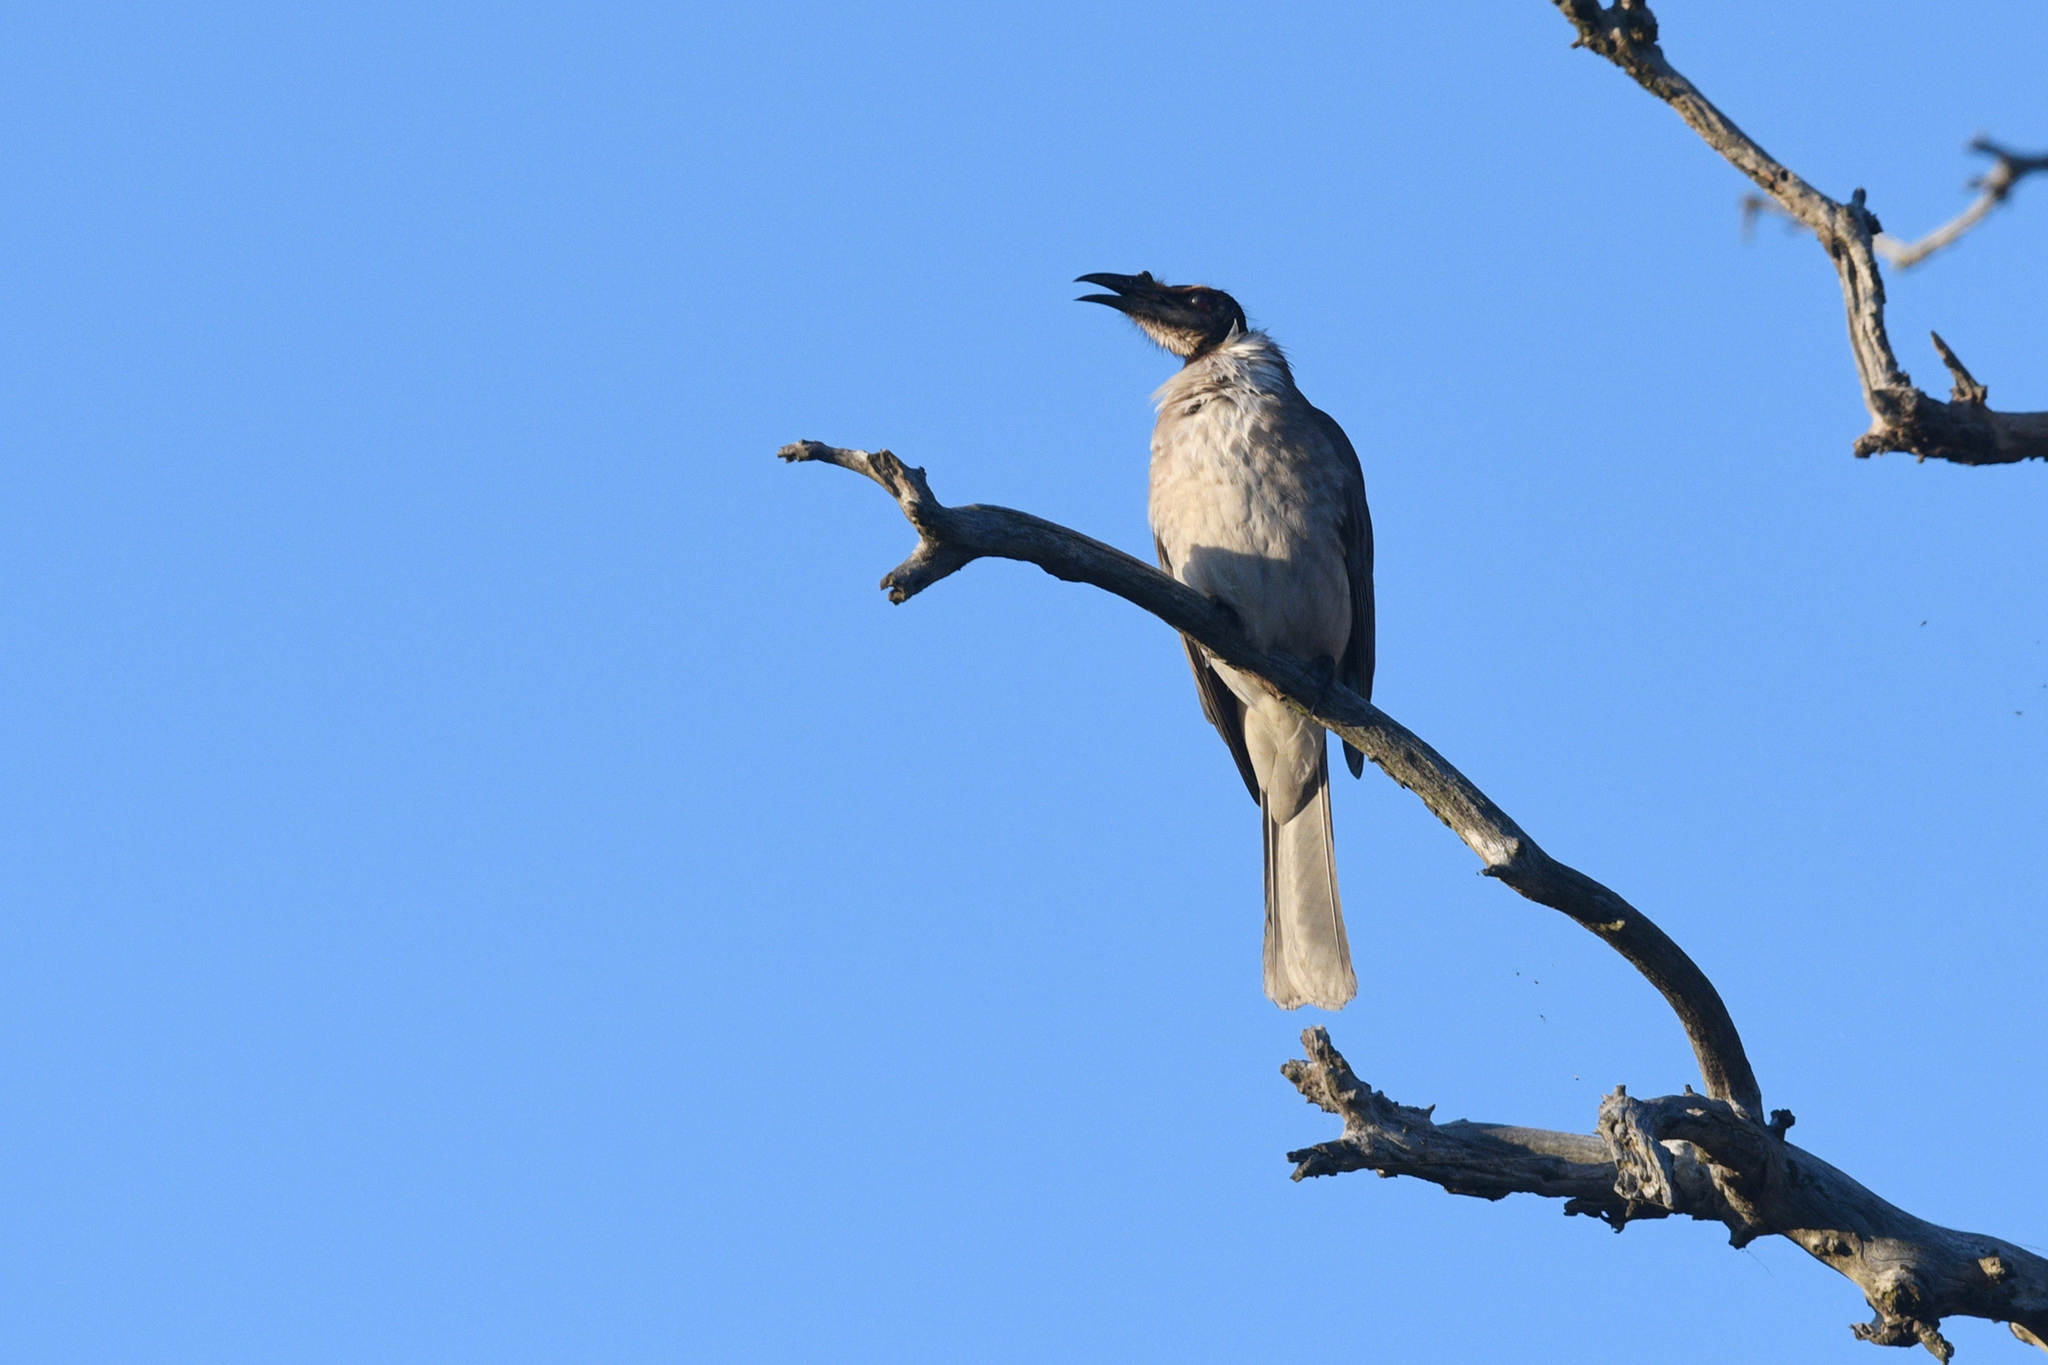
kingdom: Animalia
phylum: Chordata
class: Aves
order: Passeriformes
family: Meliphagidae
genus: Philemon
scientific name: Philemon corniculatus
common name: Noisy friarbird
